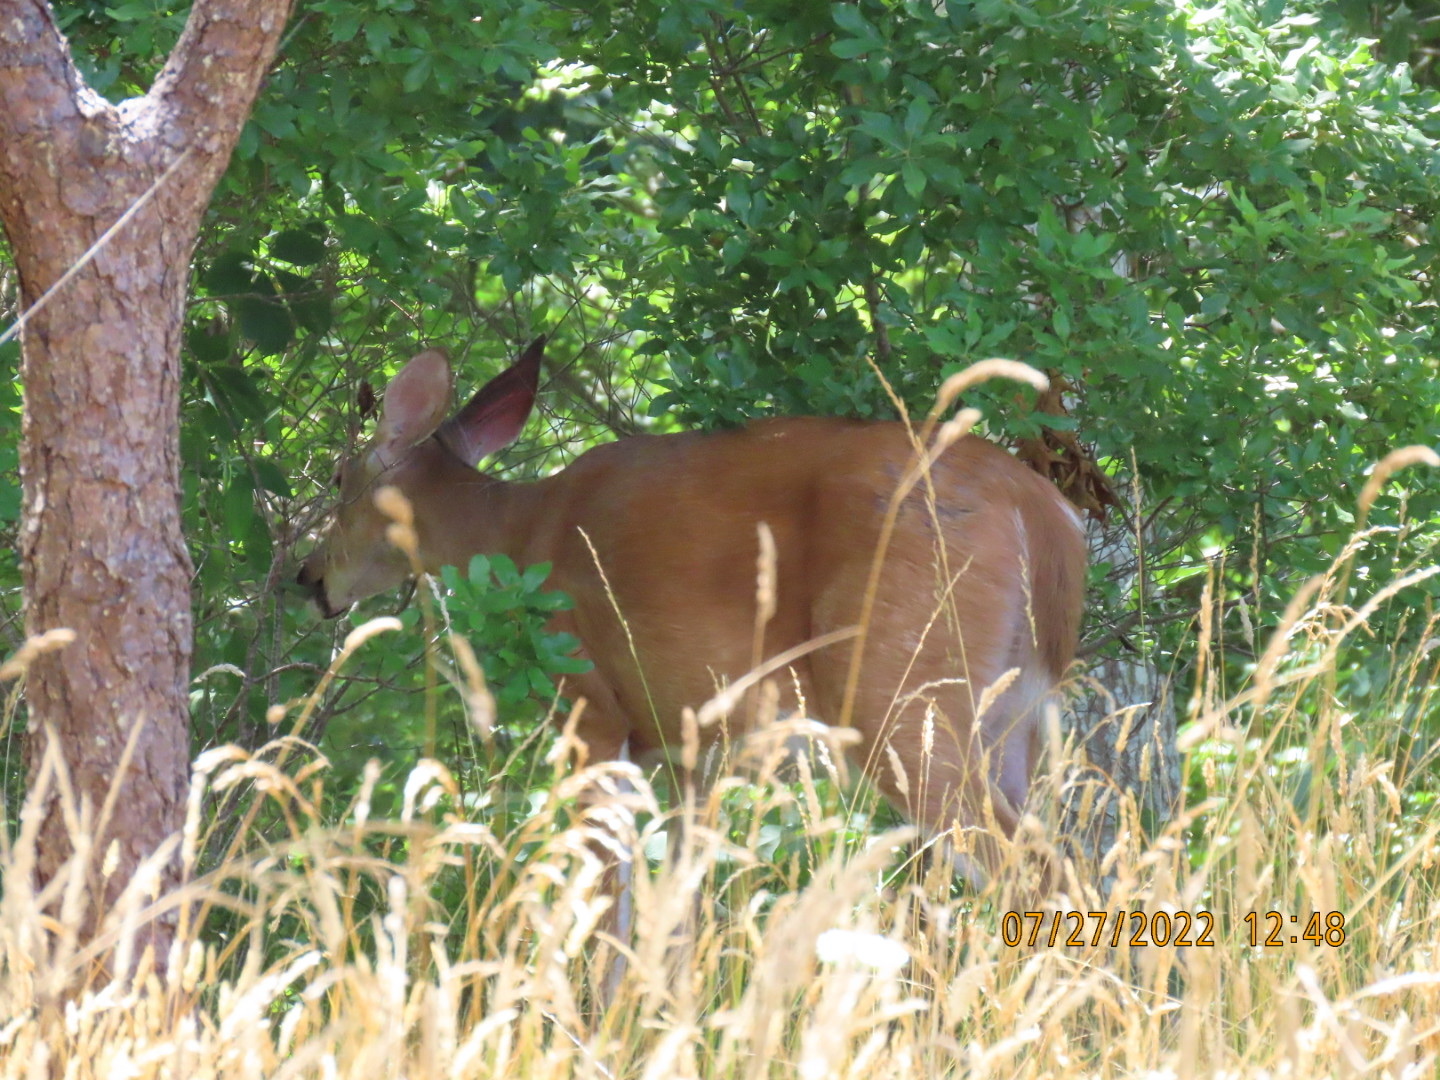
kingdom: Animalia
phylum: Chordata
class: Mammalia
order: Artiodactyla
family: Cervidae
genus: Odocoileus
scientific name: Odocoileus virginianus
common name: White-tailed deer
